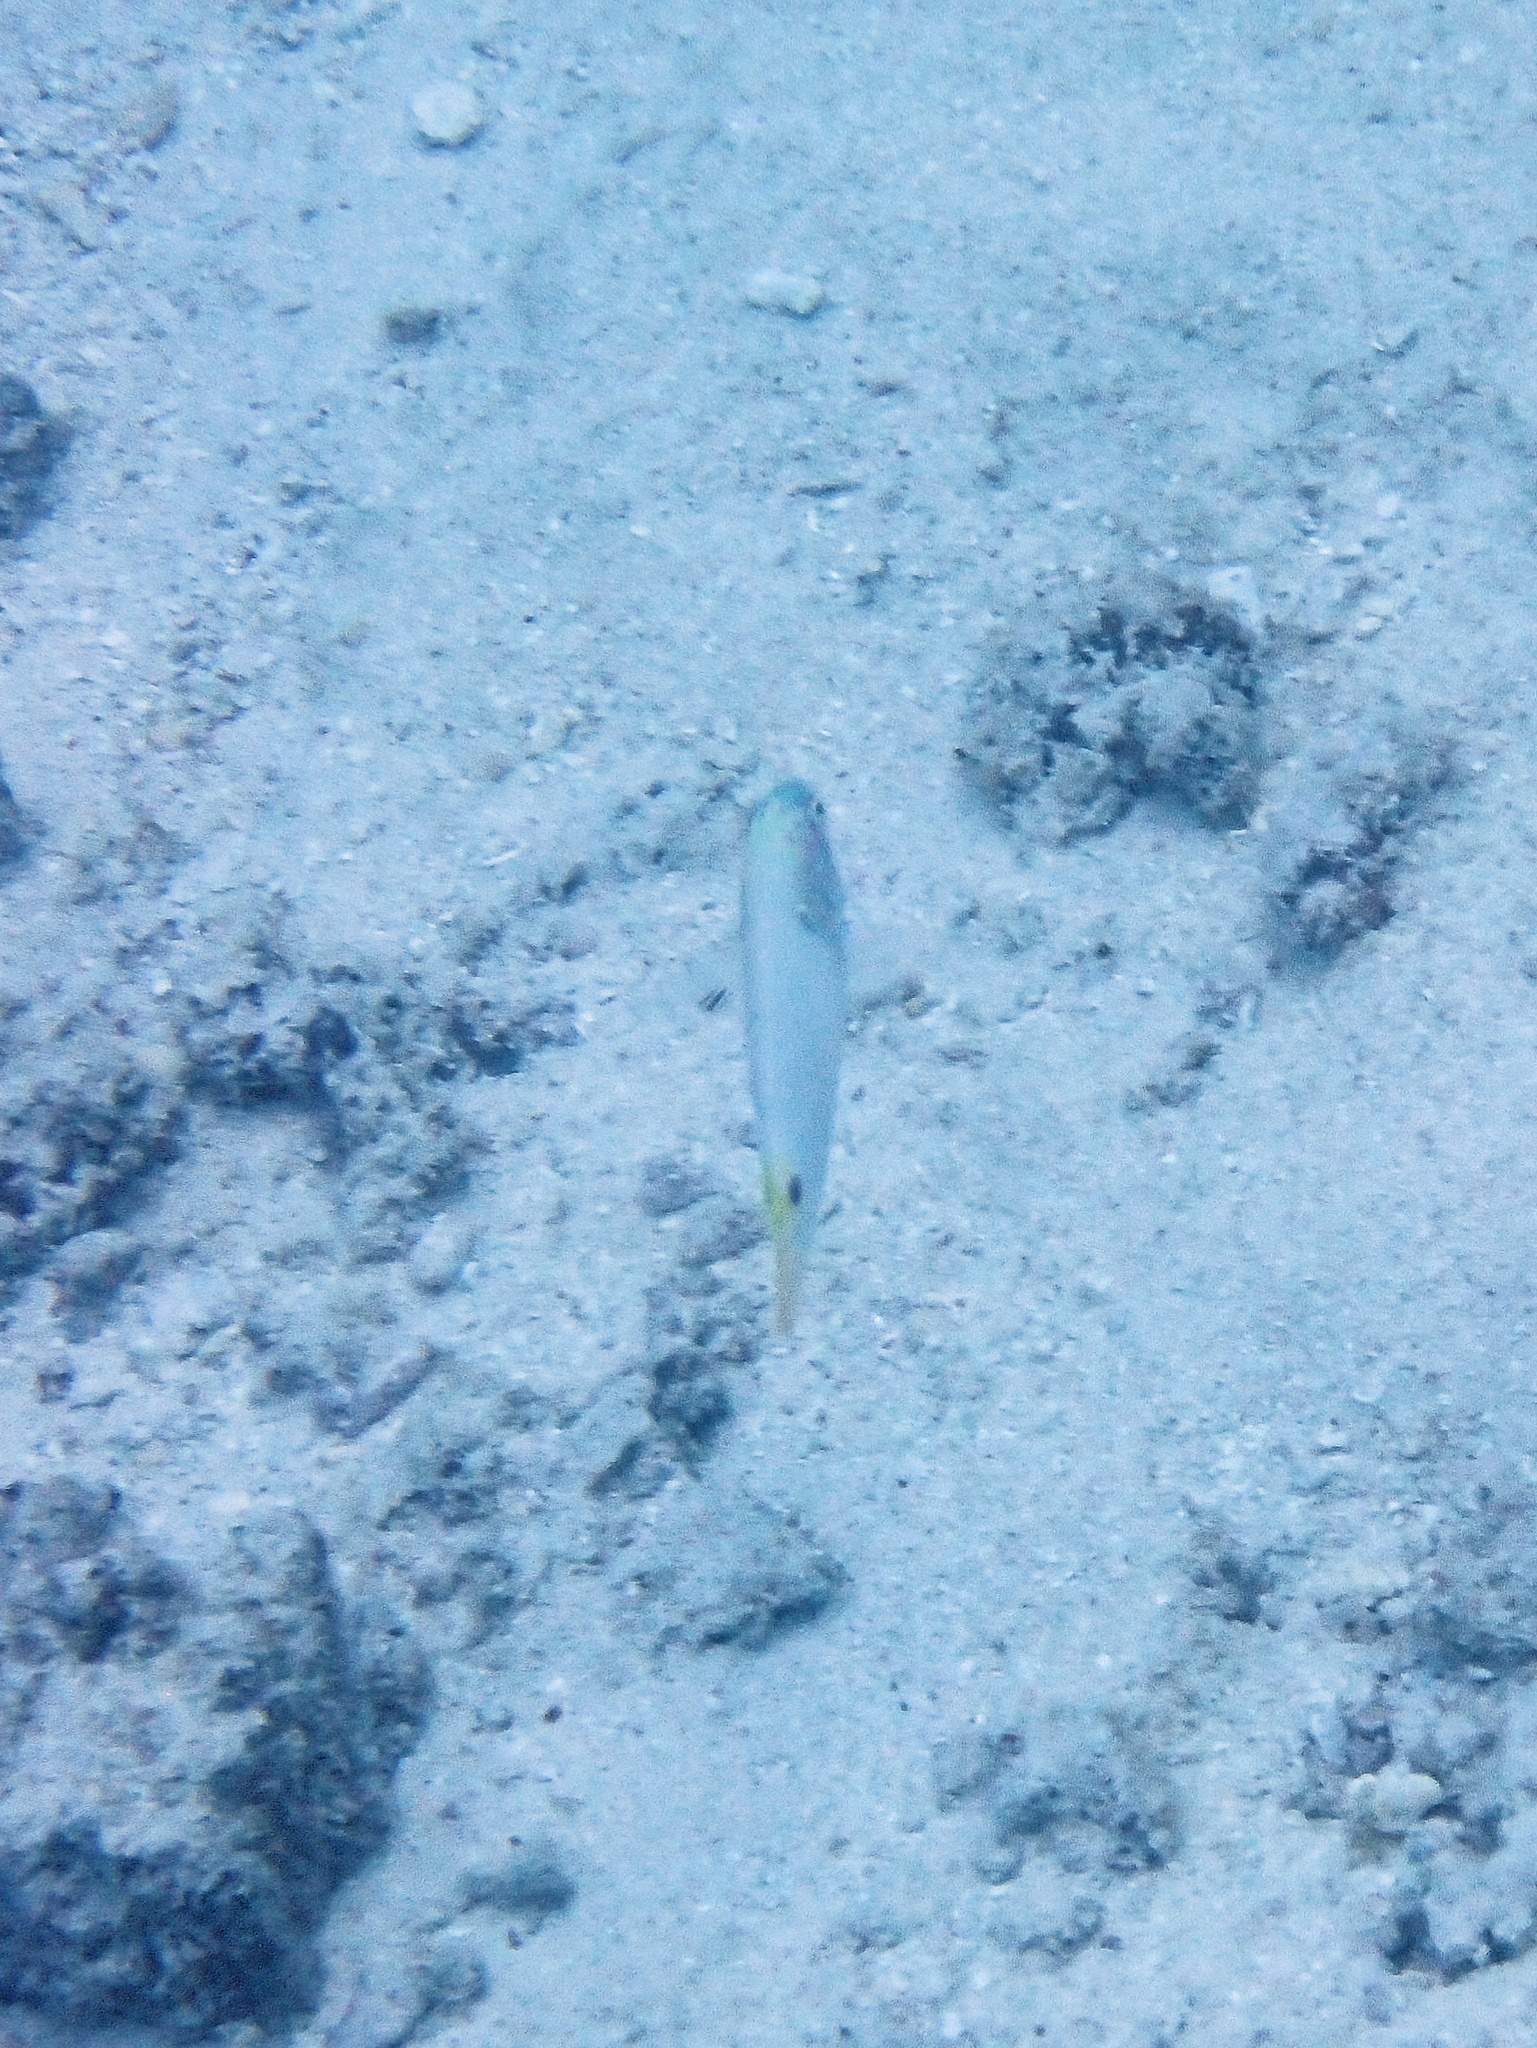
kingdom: Animalia
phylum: Chordata
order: Perciformes
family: Labridae
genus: Halichoeres
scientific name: Halichoeres trimaculatus
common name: Three-spot wrasse
